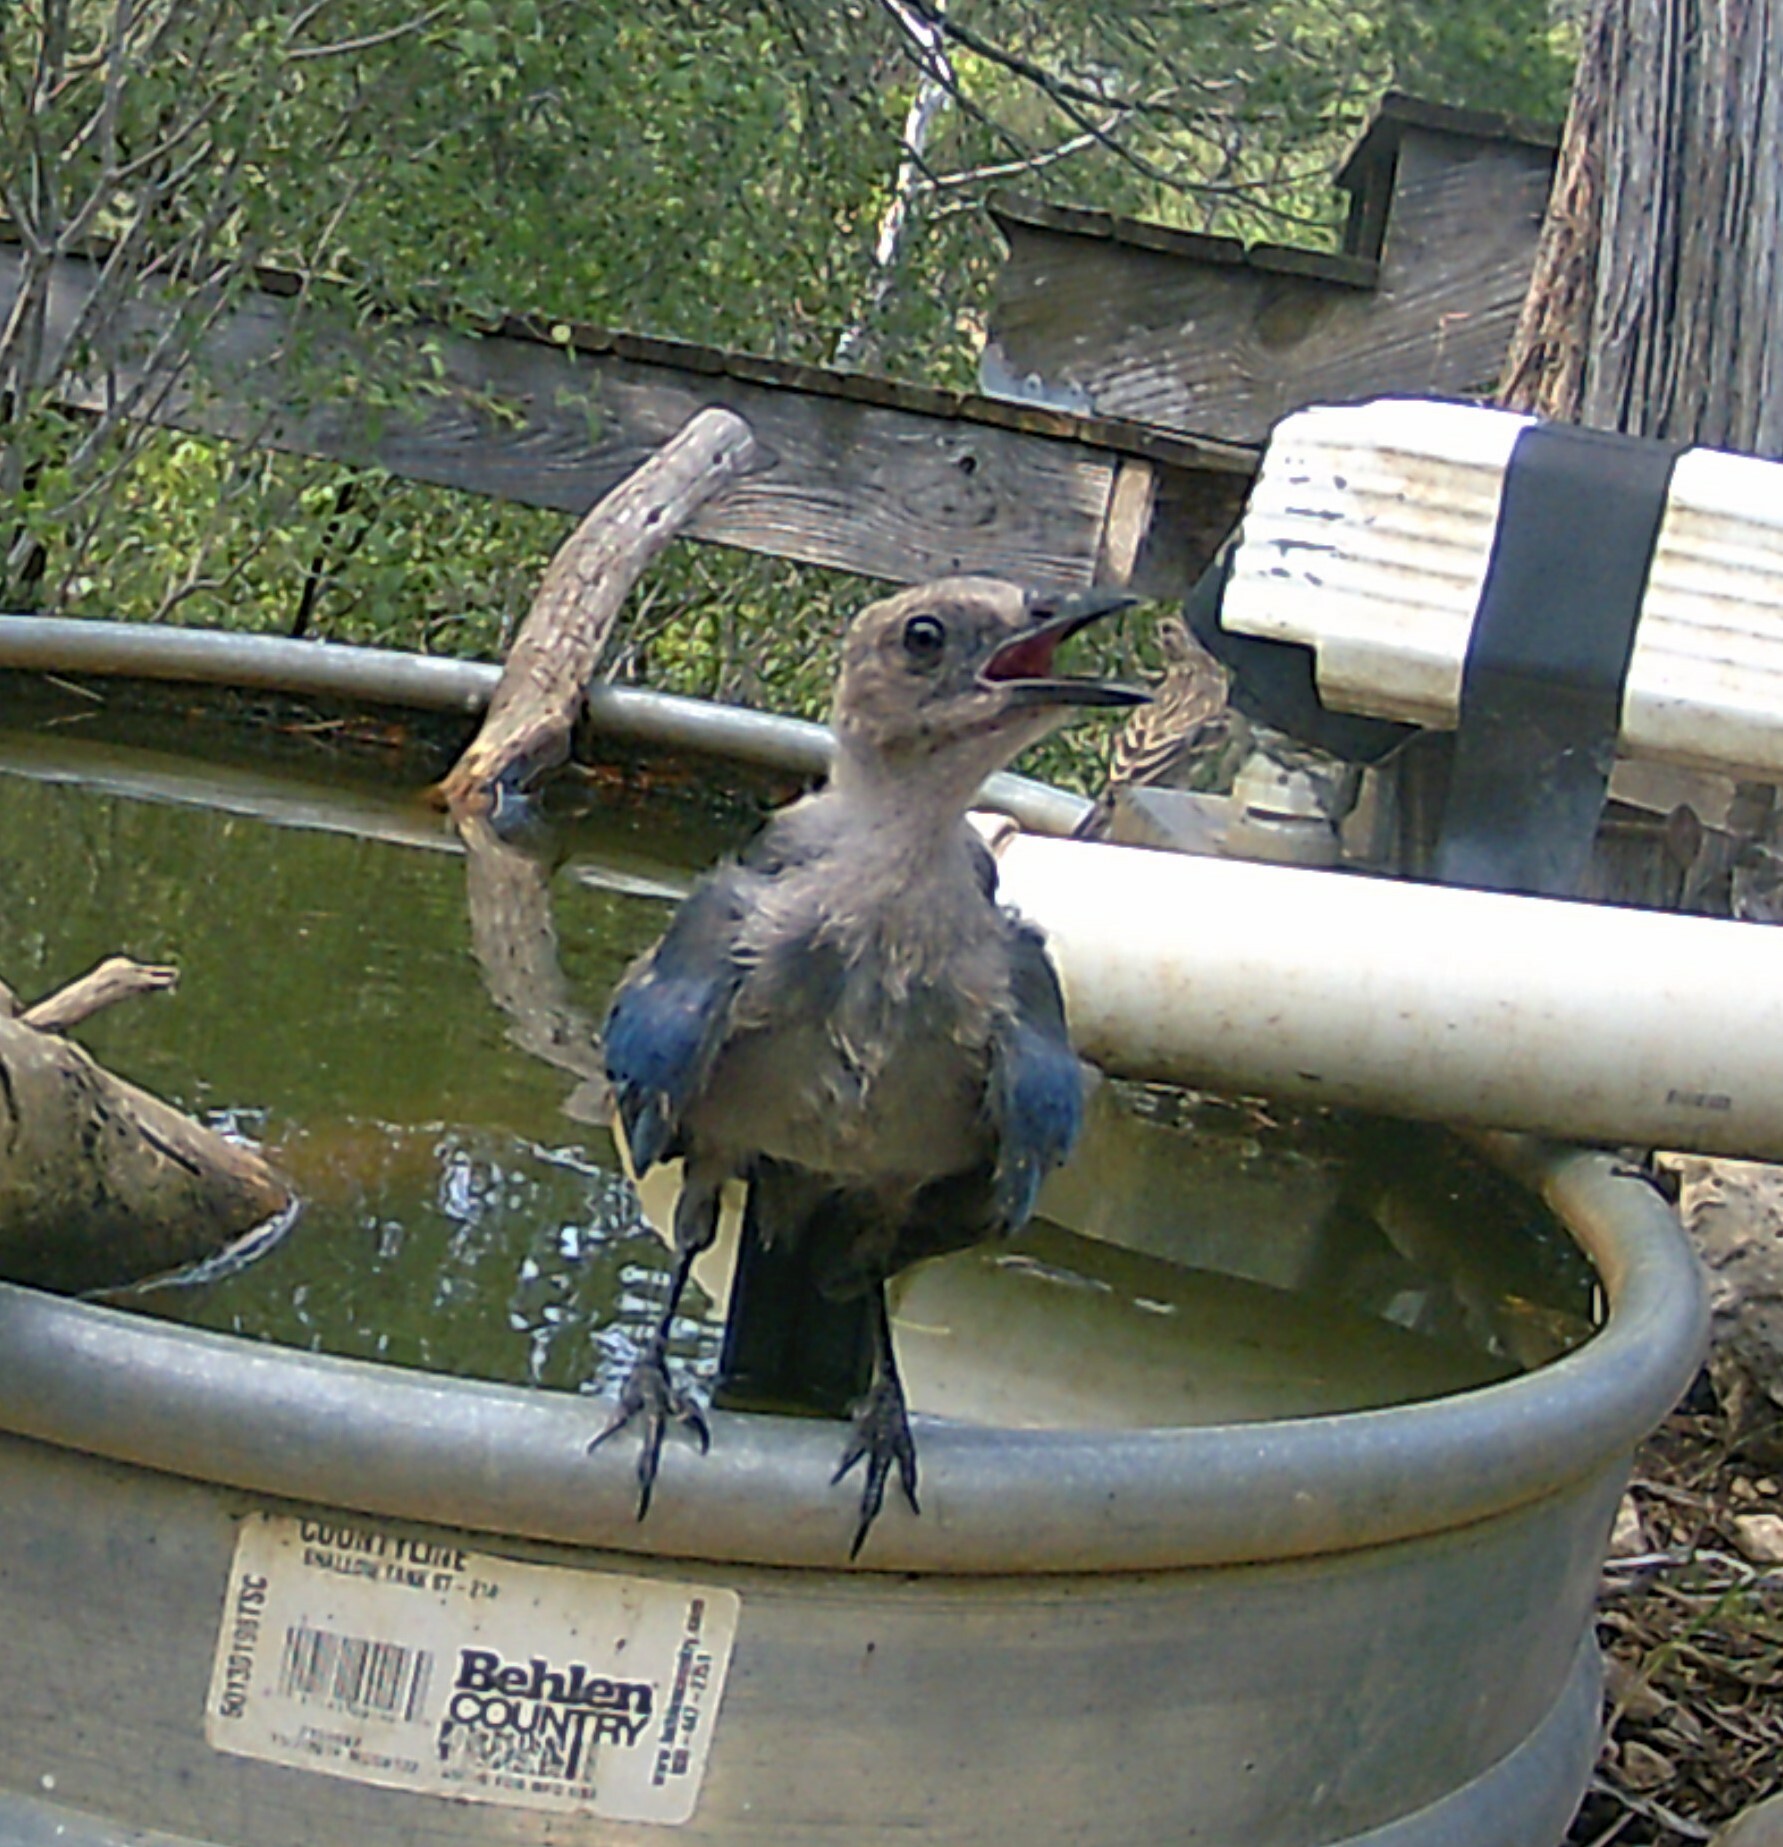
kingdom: Animalia
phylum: Chordata
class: Aves
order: Passeriformes
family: Corvidae
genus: Aphelocoma
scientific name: Aphelocoma woodhouseii
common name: Woodhouse's scrub-jay
